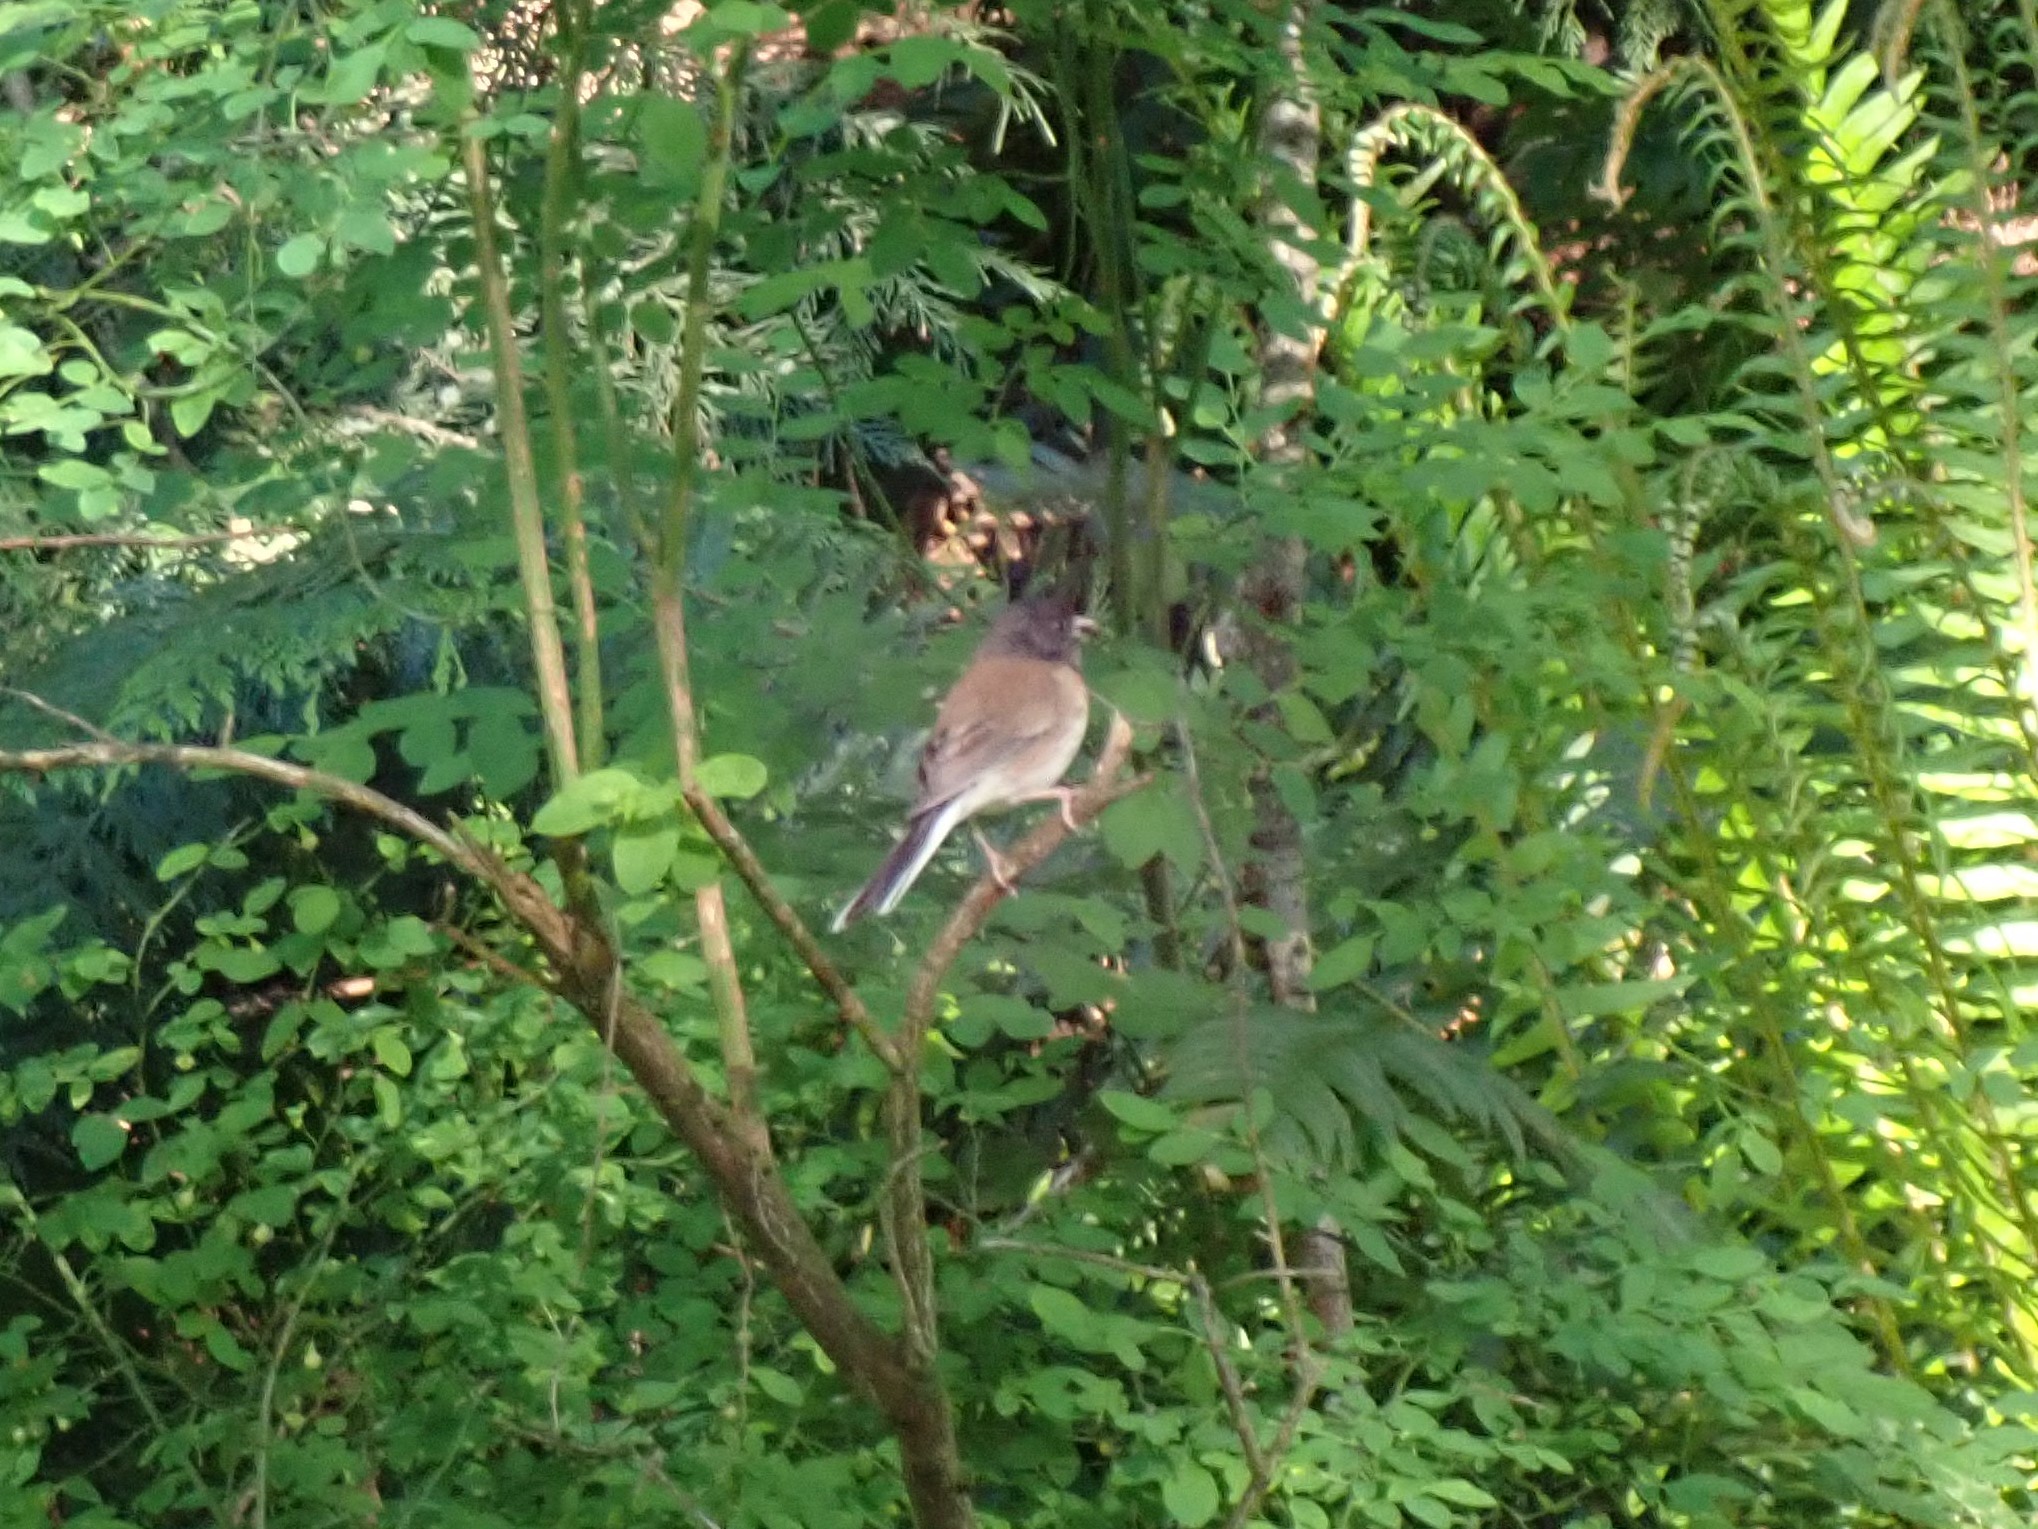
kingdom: Animalia
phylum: Chordata
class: Aves
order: Passeriformes
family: Passerellidae
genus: Junco
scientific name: Junco hyemalis
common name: Dark-eyed junco
